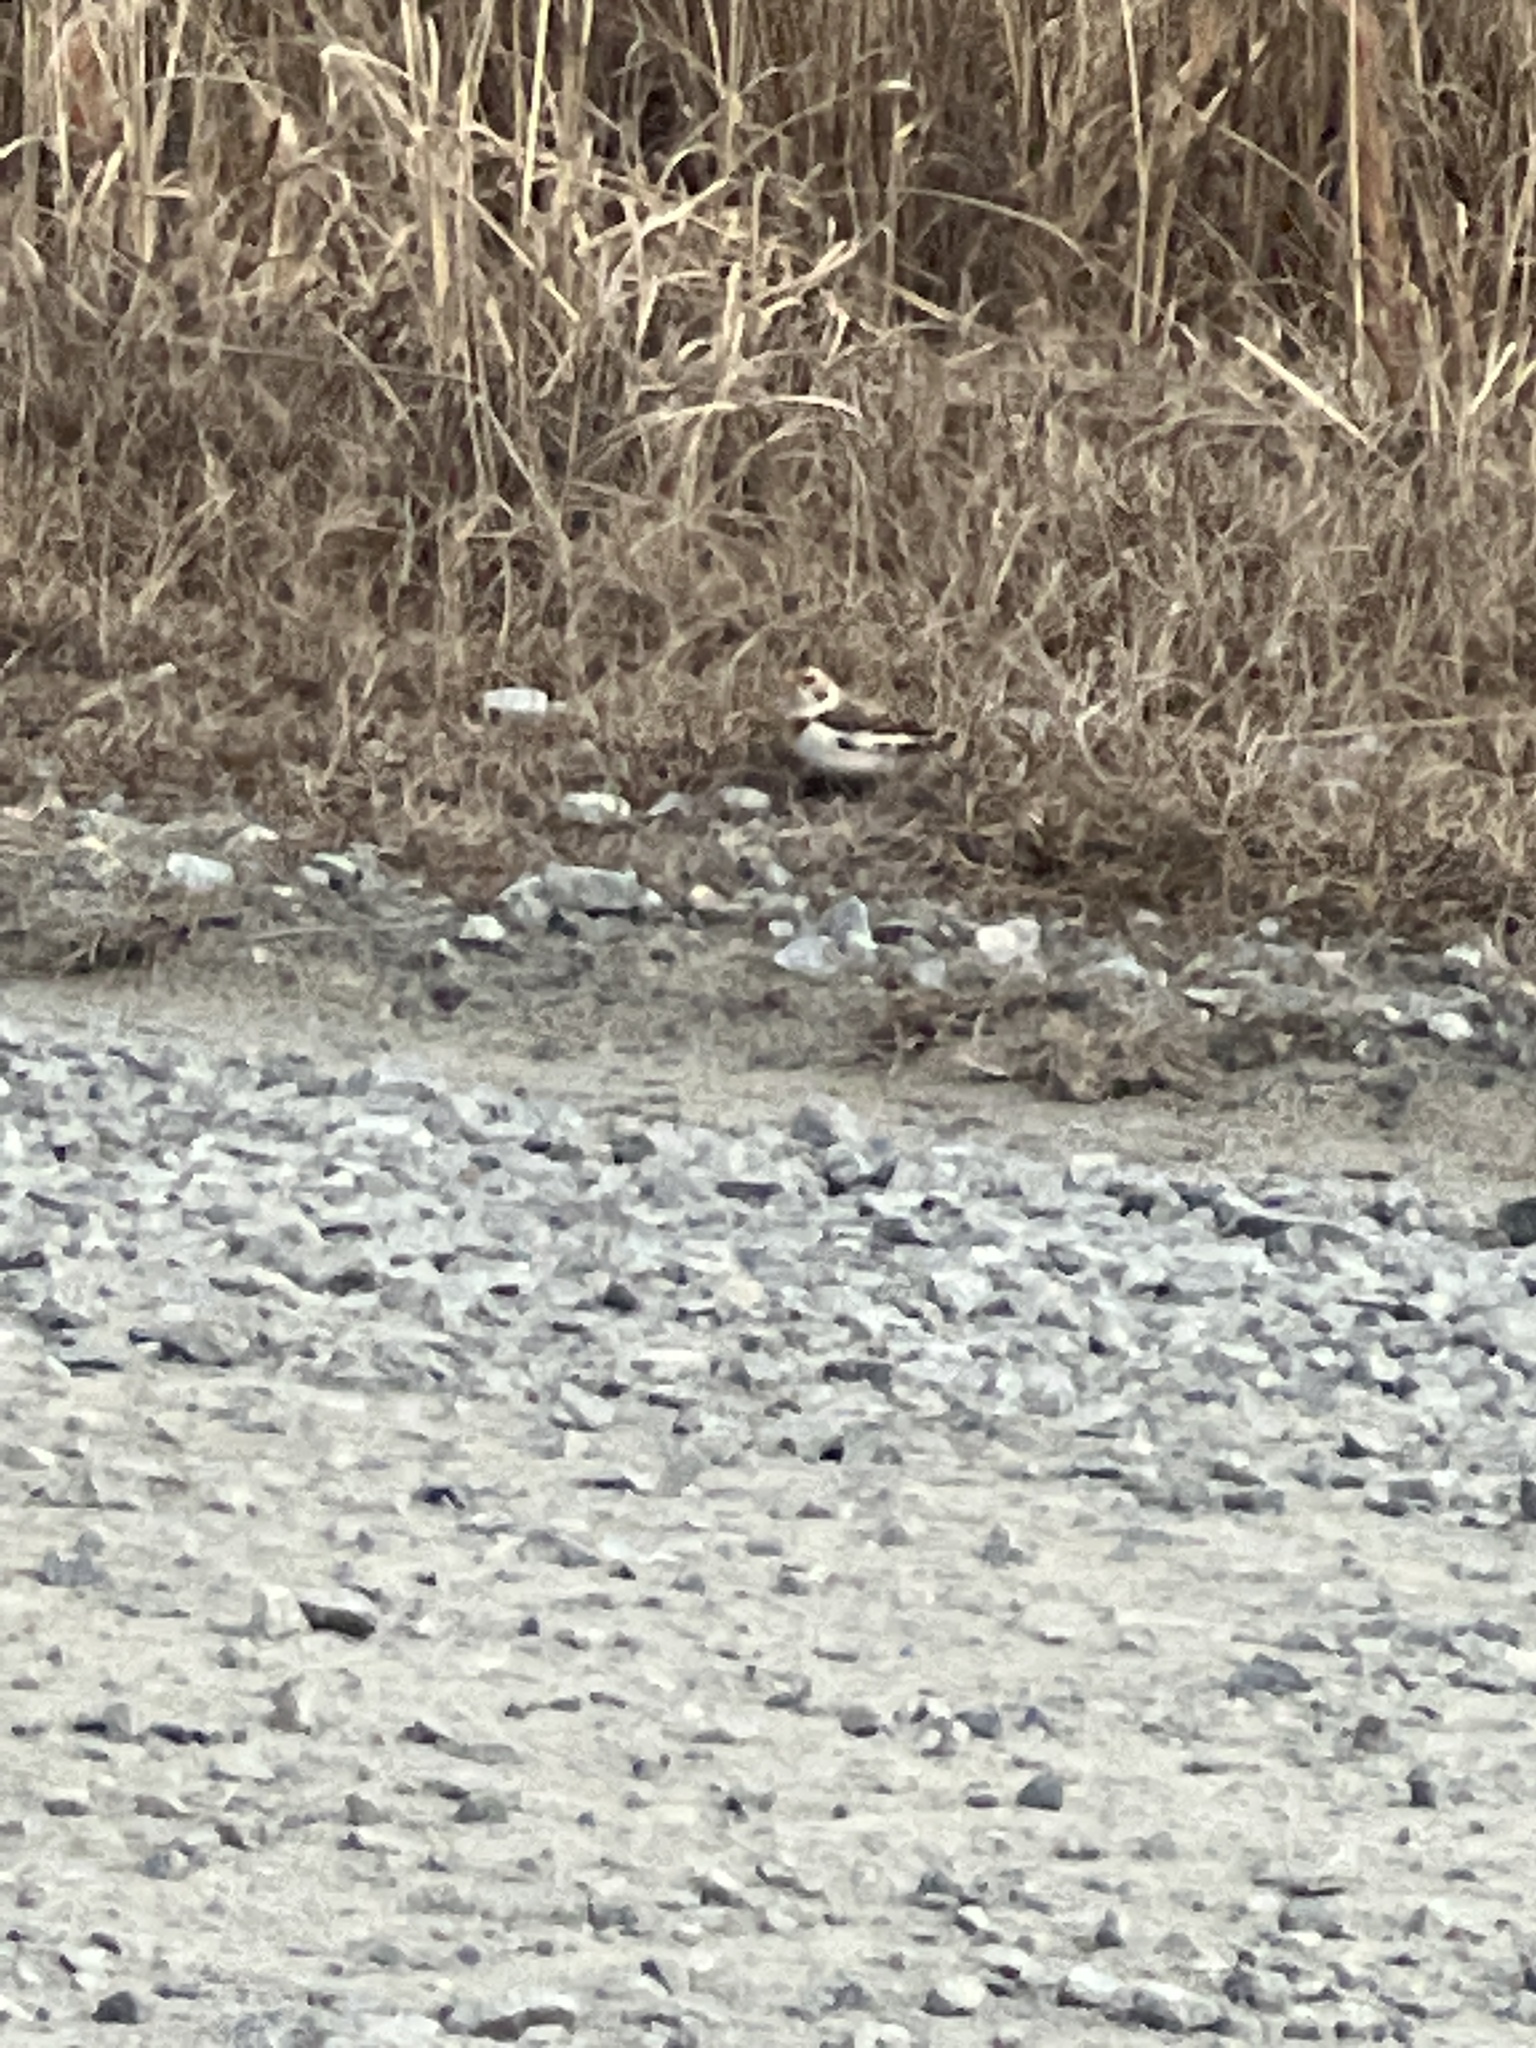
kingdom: Animalia
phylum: Chordata
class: Aves
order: Passeriformes
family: Calcariidae
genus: Plectrophenax
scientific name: Plectrophenax nivalis
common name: Snow bunting
